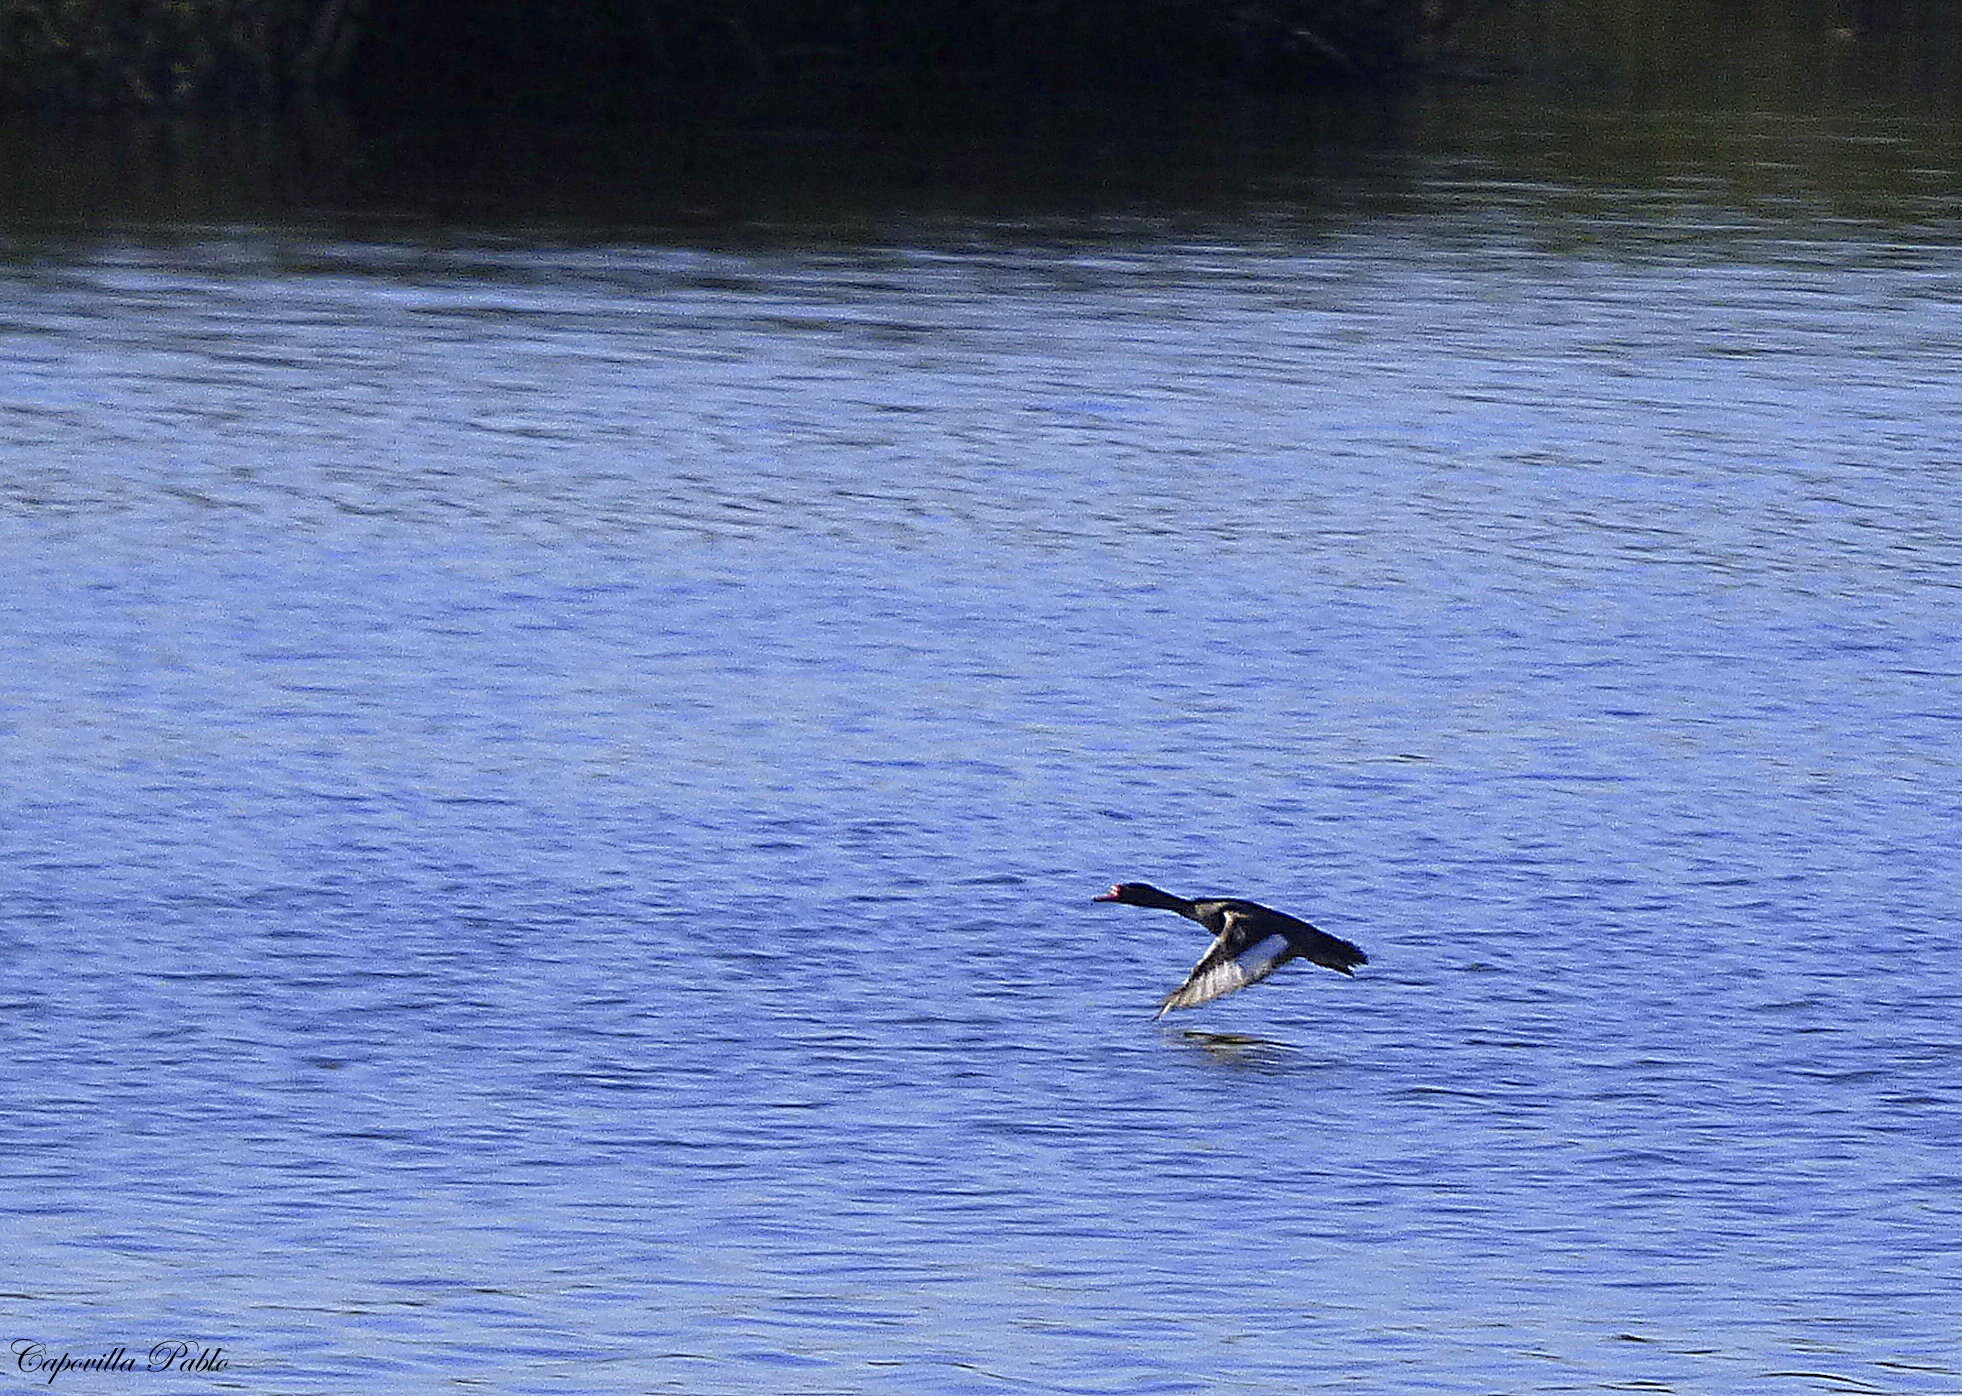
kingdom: Animalia
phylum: Chordata
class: Aves
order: Anseriformes
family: Anatidae
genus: Netta
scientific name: Netta peposaca
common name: Rosy-billed pochard
